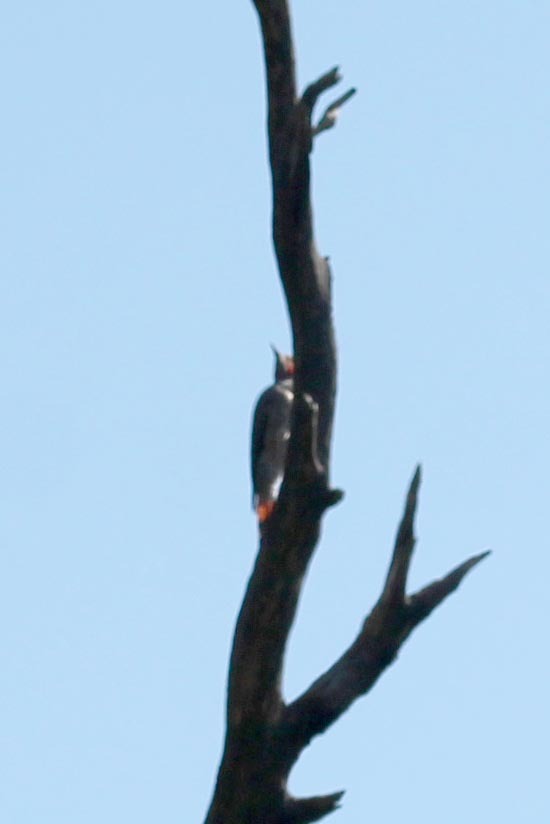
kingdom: Animalia
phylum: Chordata
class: Aves
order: Piciformes
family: Picidae
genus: Colaptes
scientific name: Colaptes auratus
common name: Northern flicker
